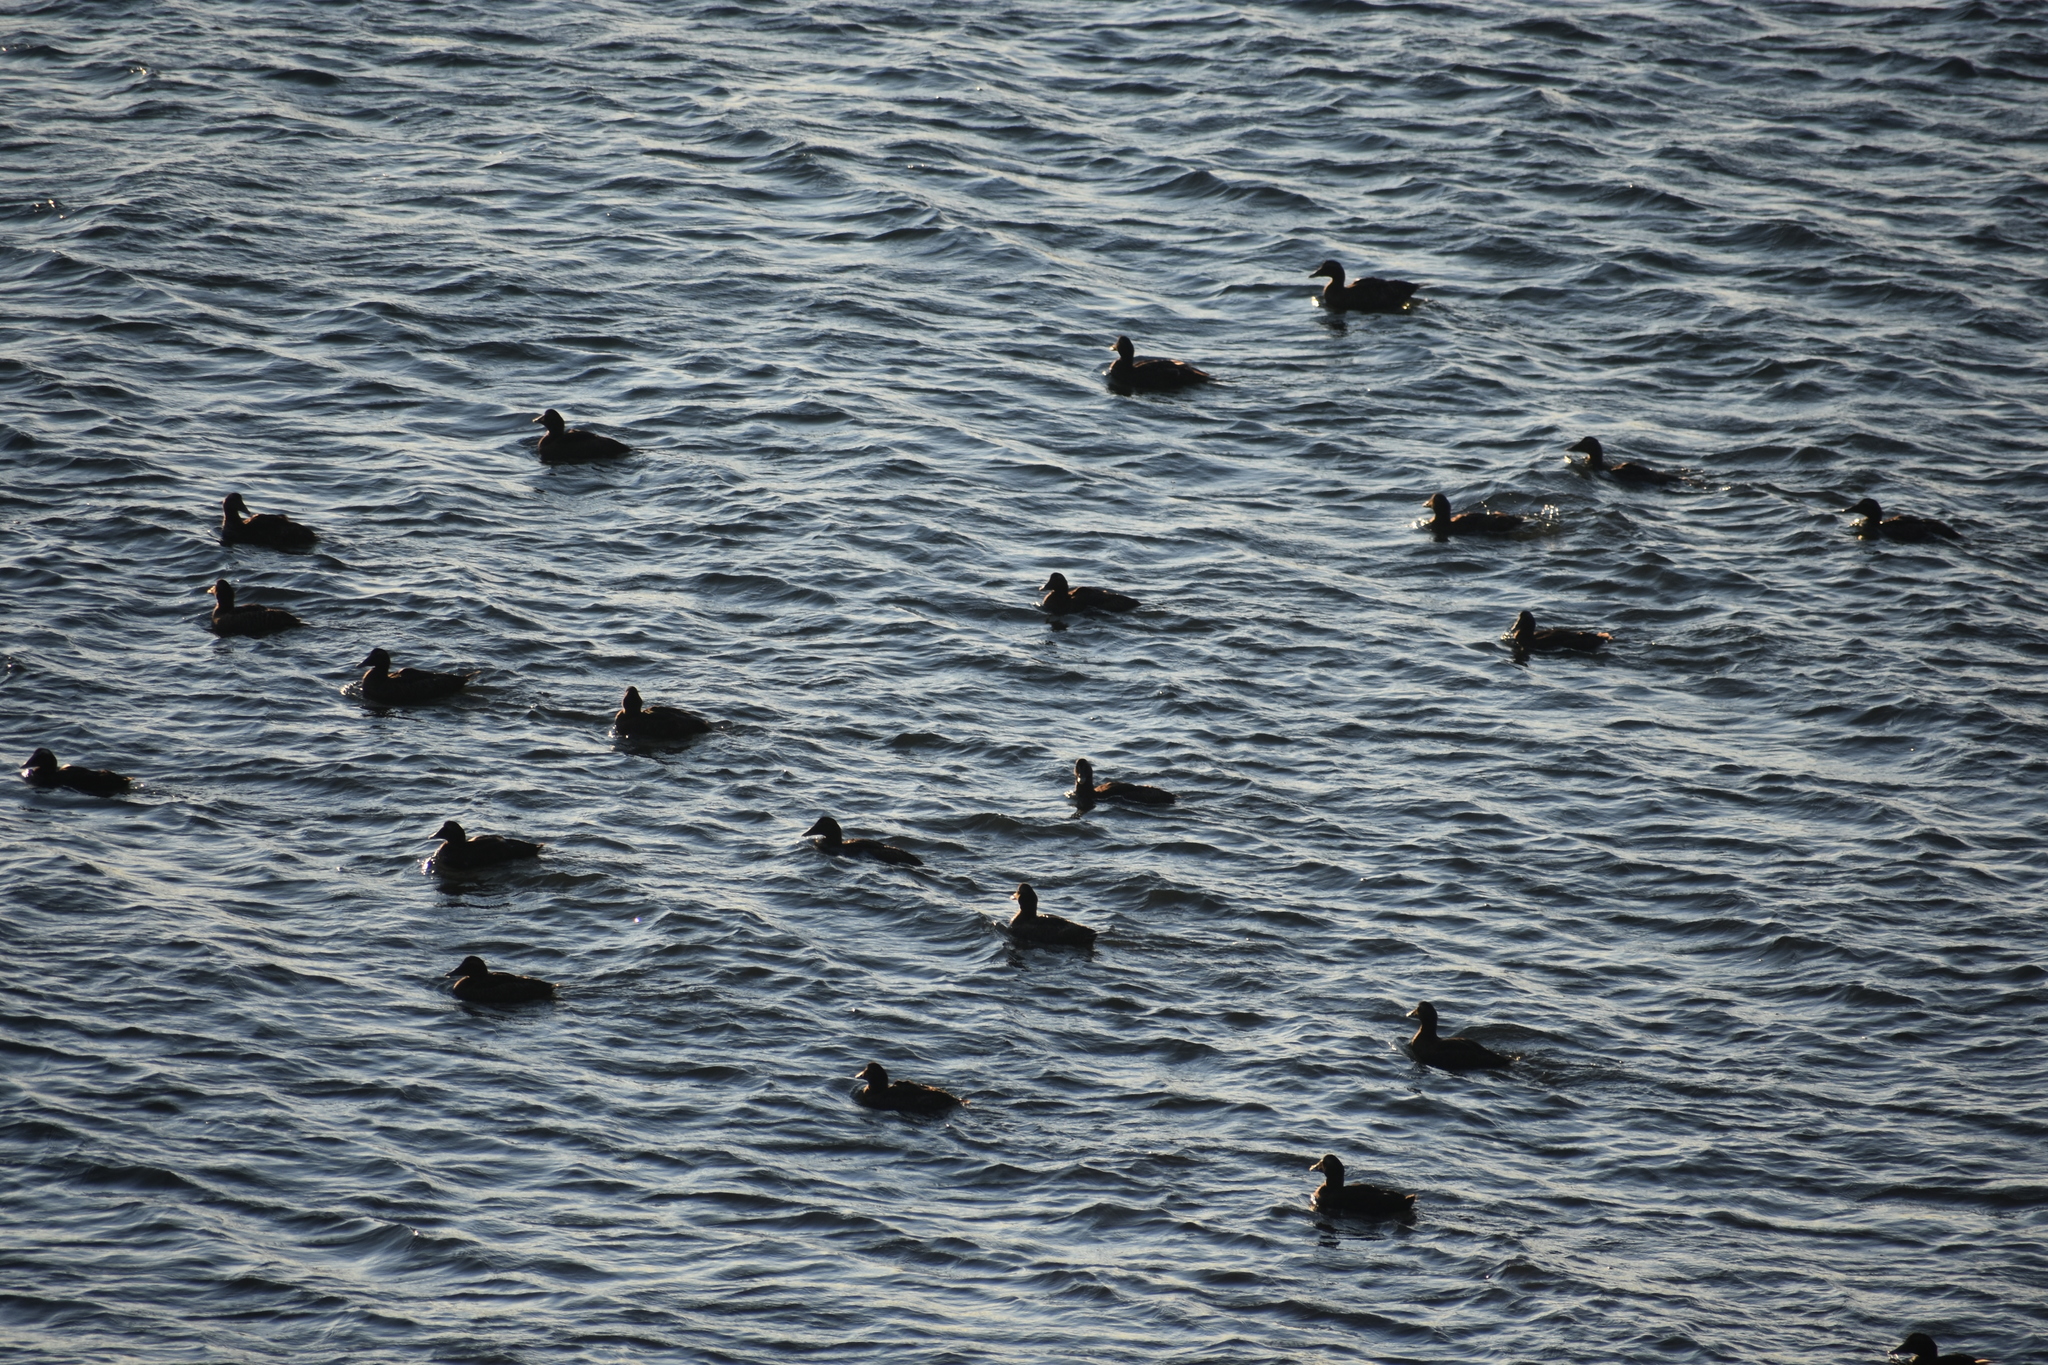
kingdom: Animalia
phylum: Chordata
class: Aves
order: Anseriformes
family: Anatidae
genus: Somateria
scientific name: Somateria mollissima
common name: Common eider
